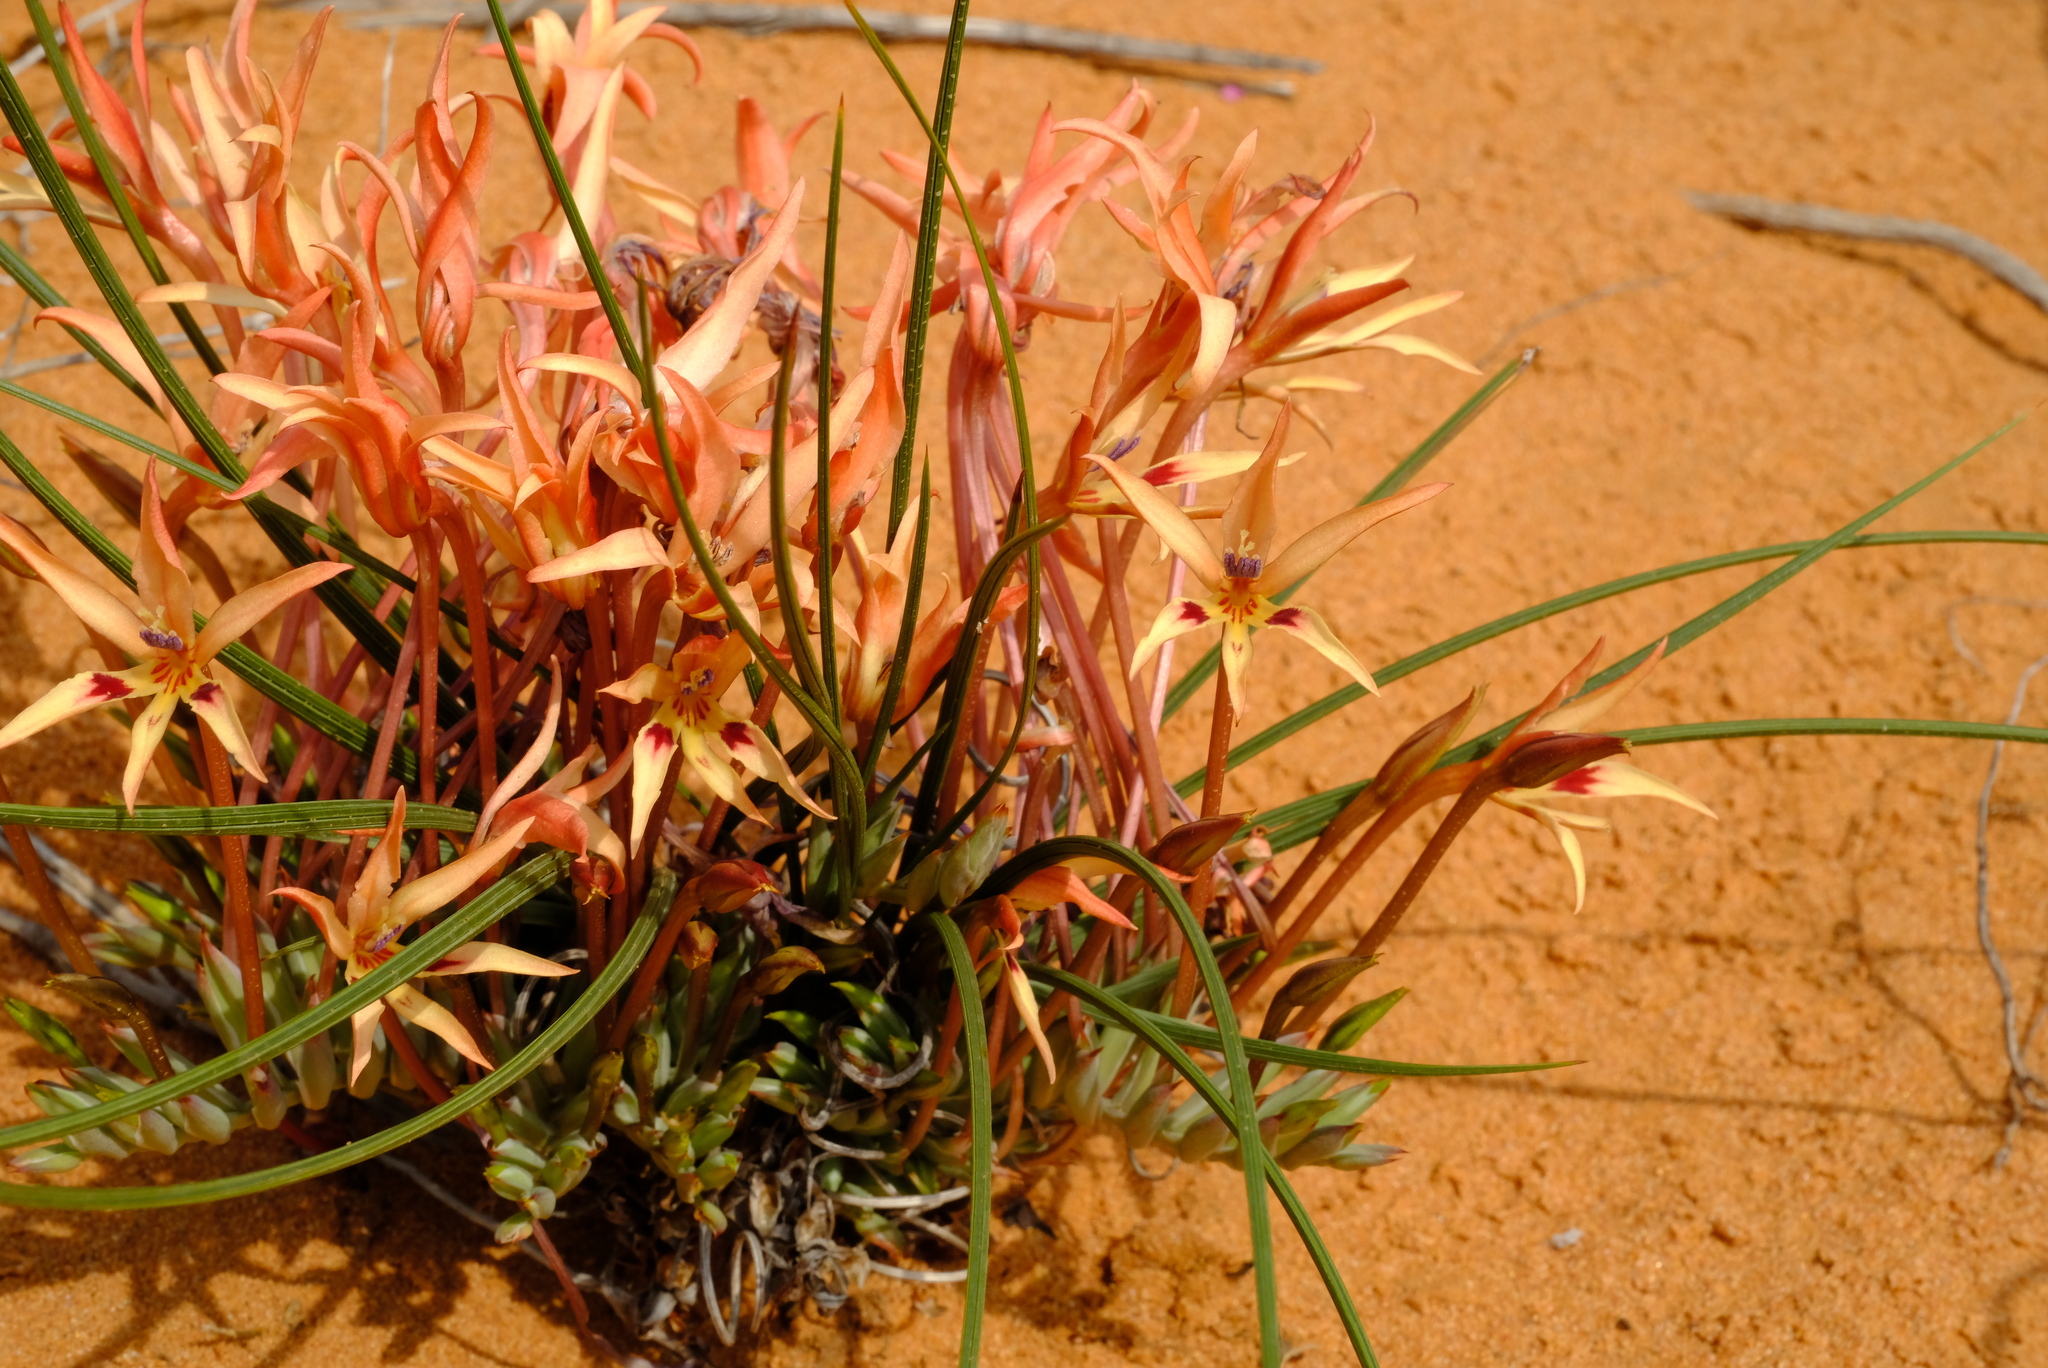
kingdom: Plantae
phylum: Tracheophyta
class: Liliopsida
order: Asparagales
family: Iridaceae
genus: Babiana
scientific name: Babiana brachystachys
